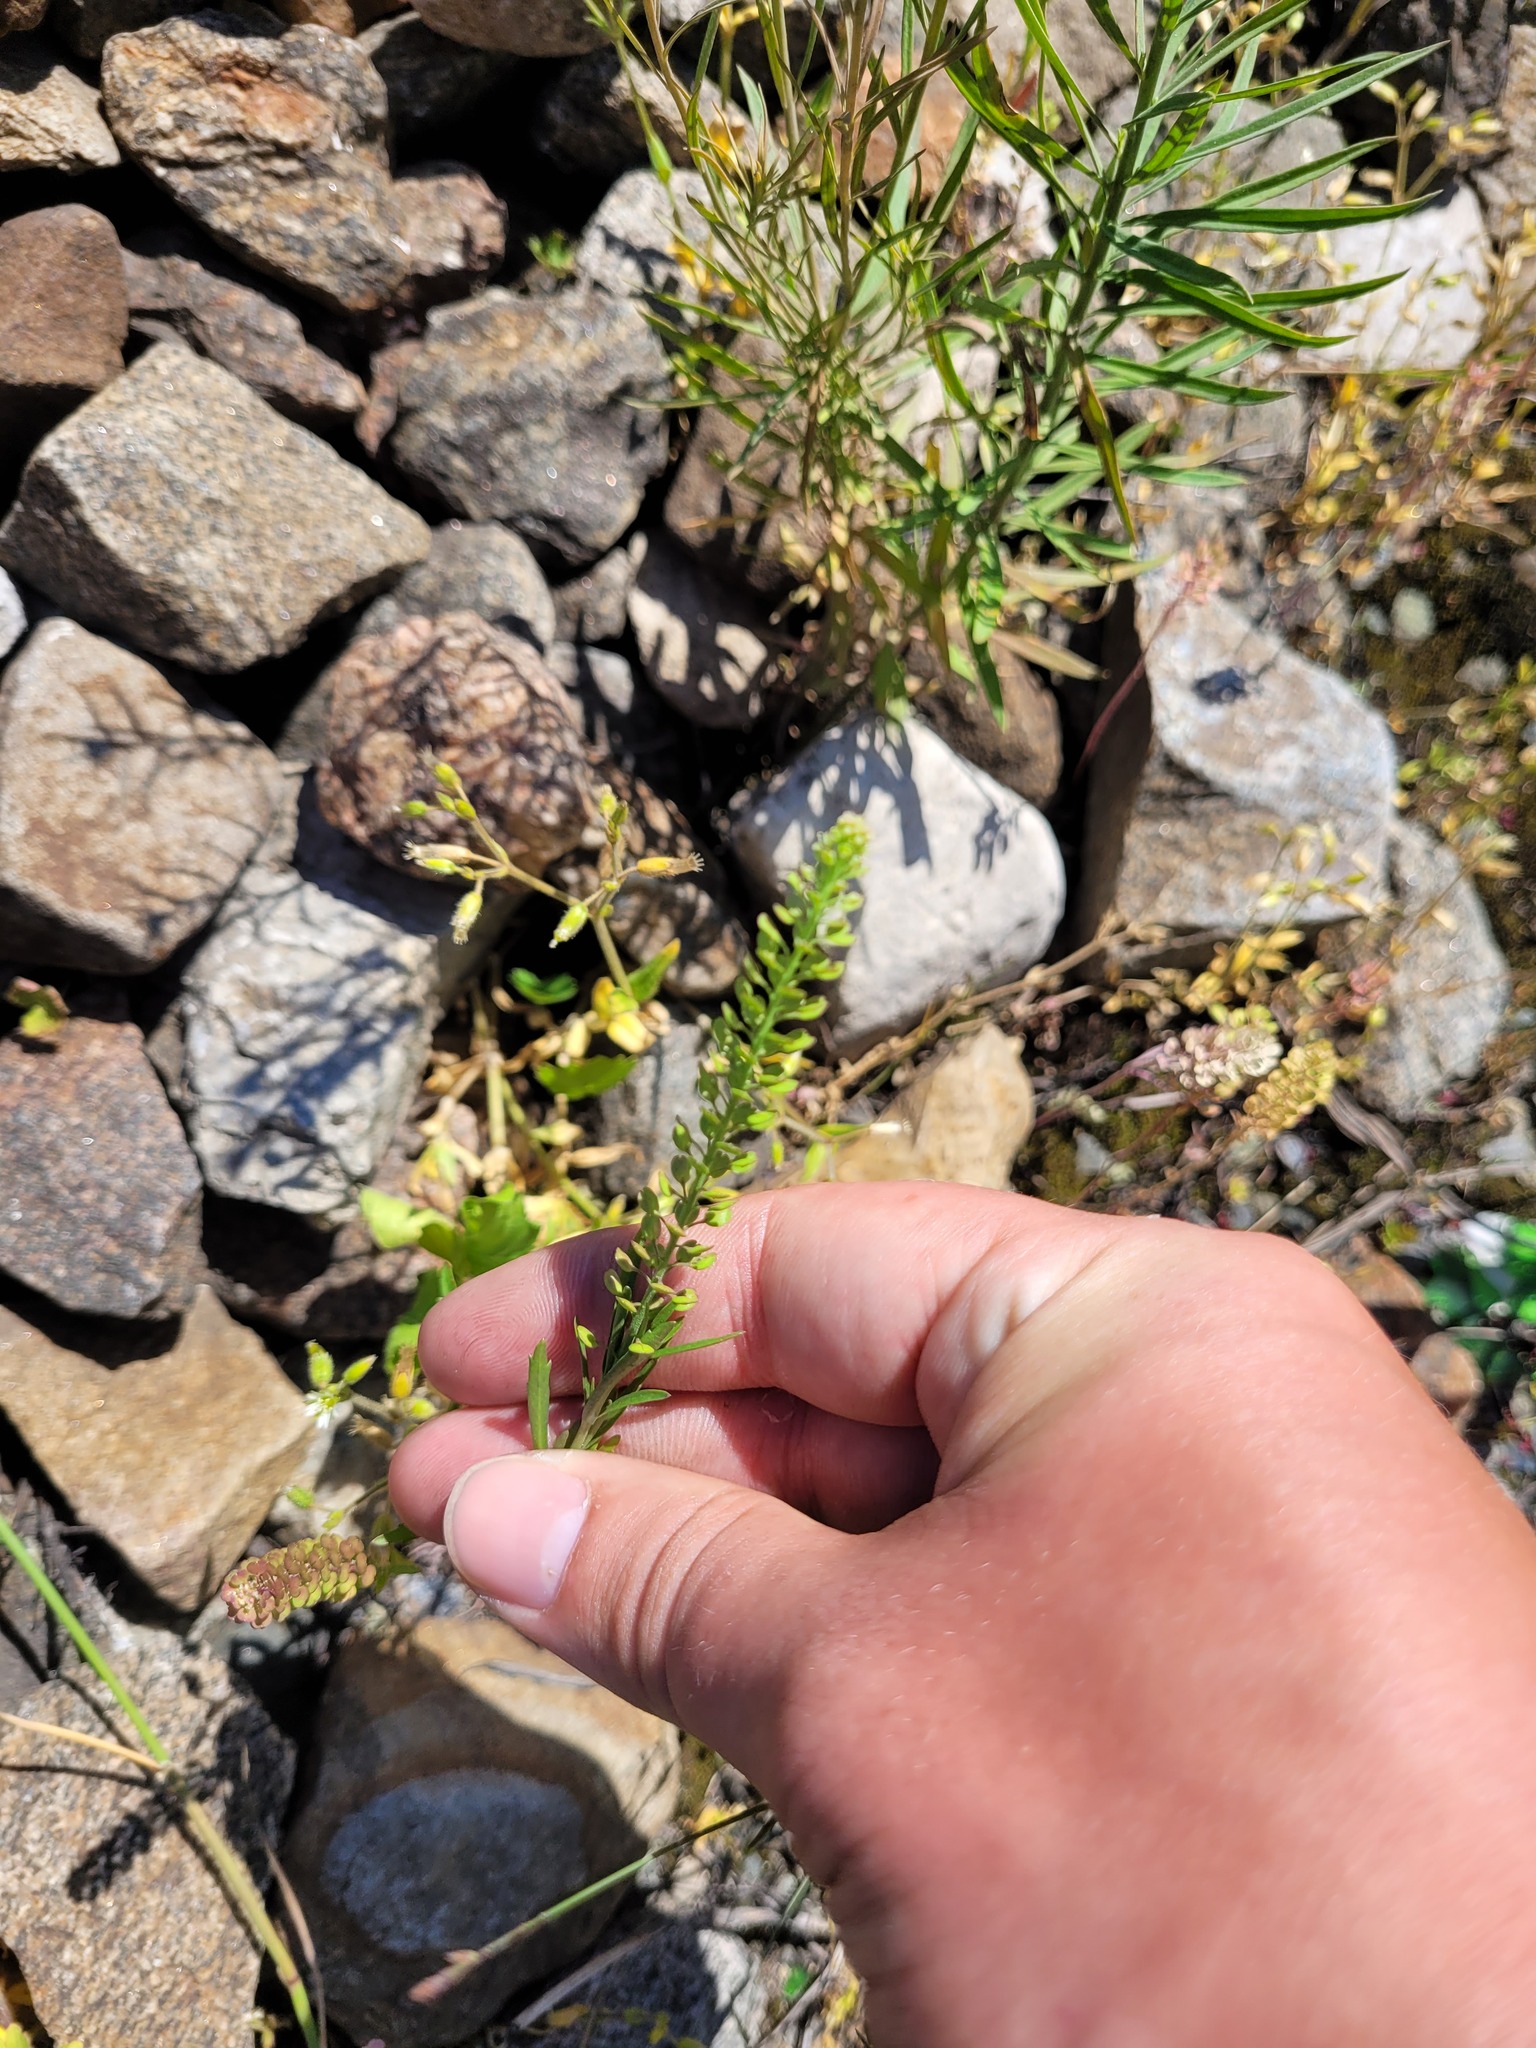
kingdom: Plantae
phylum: Tracheophyta
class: Magnoliopsida
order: Brassicales
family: Brassicaceae
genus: Lepidium
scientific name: Lepidium densiflorum
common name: Miner's pepperwort
